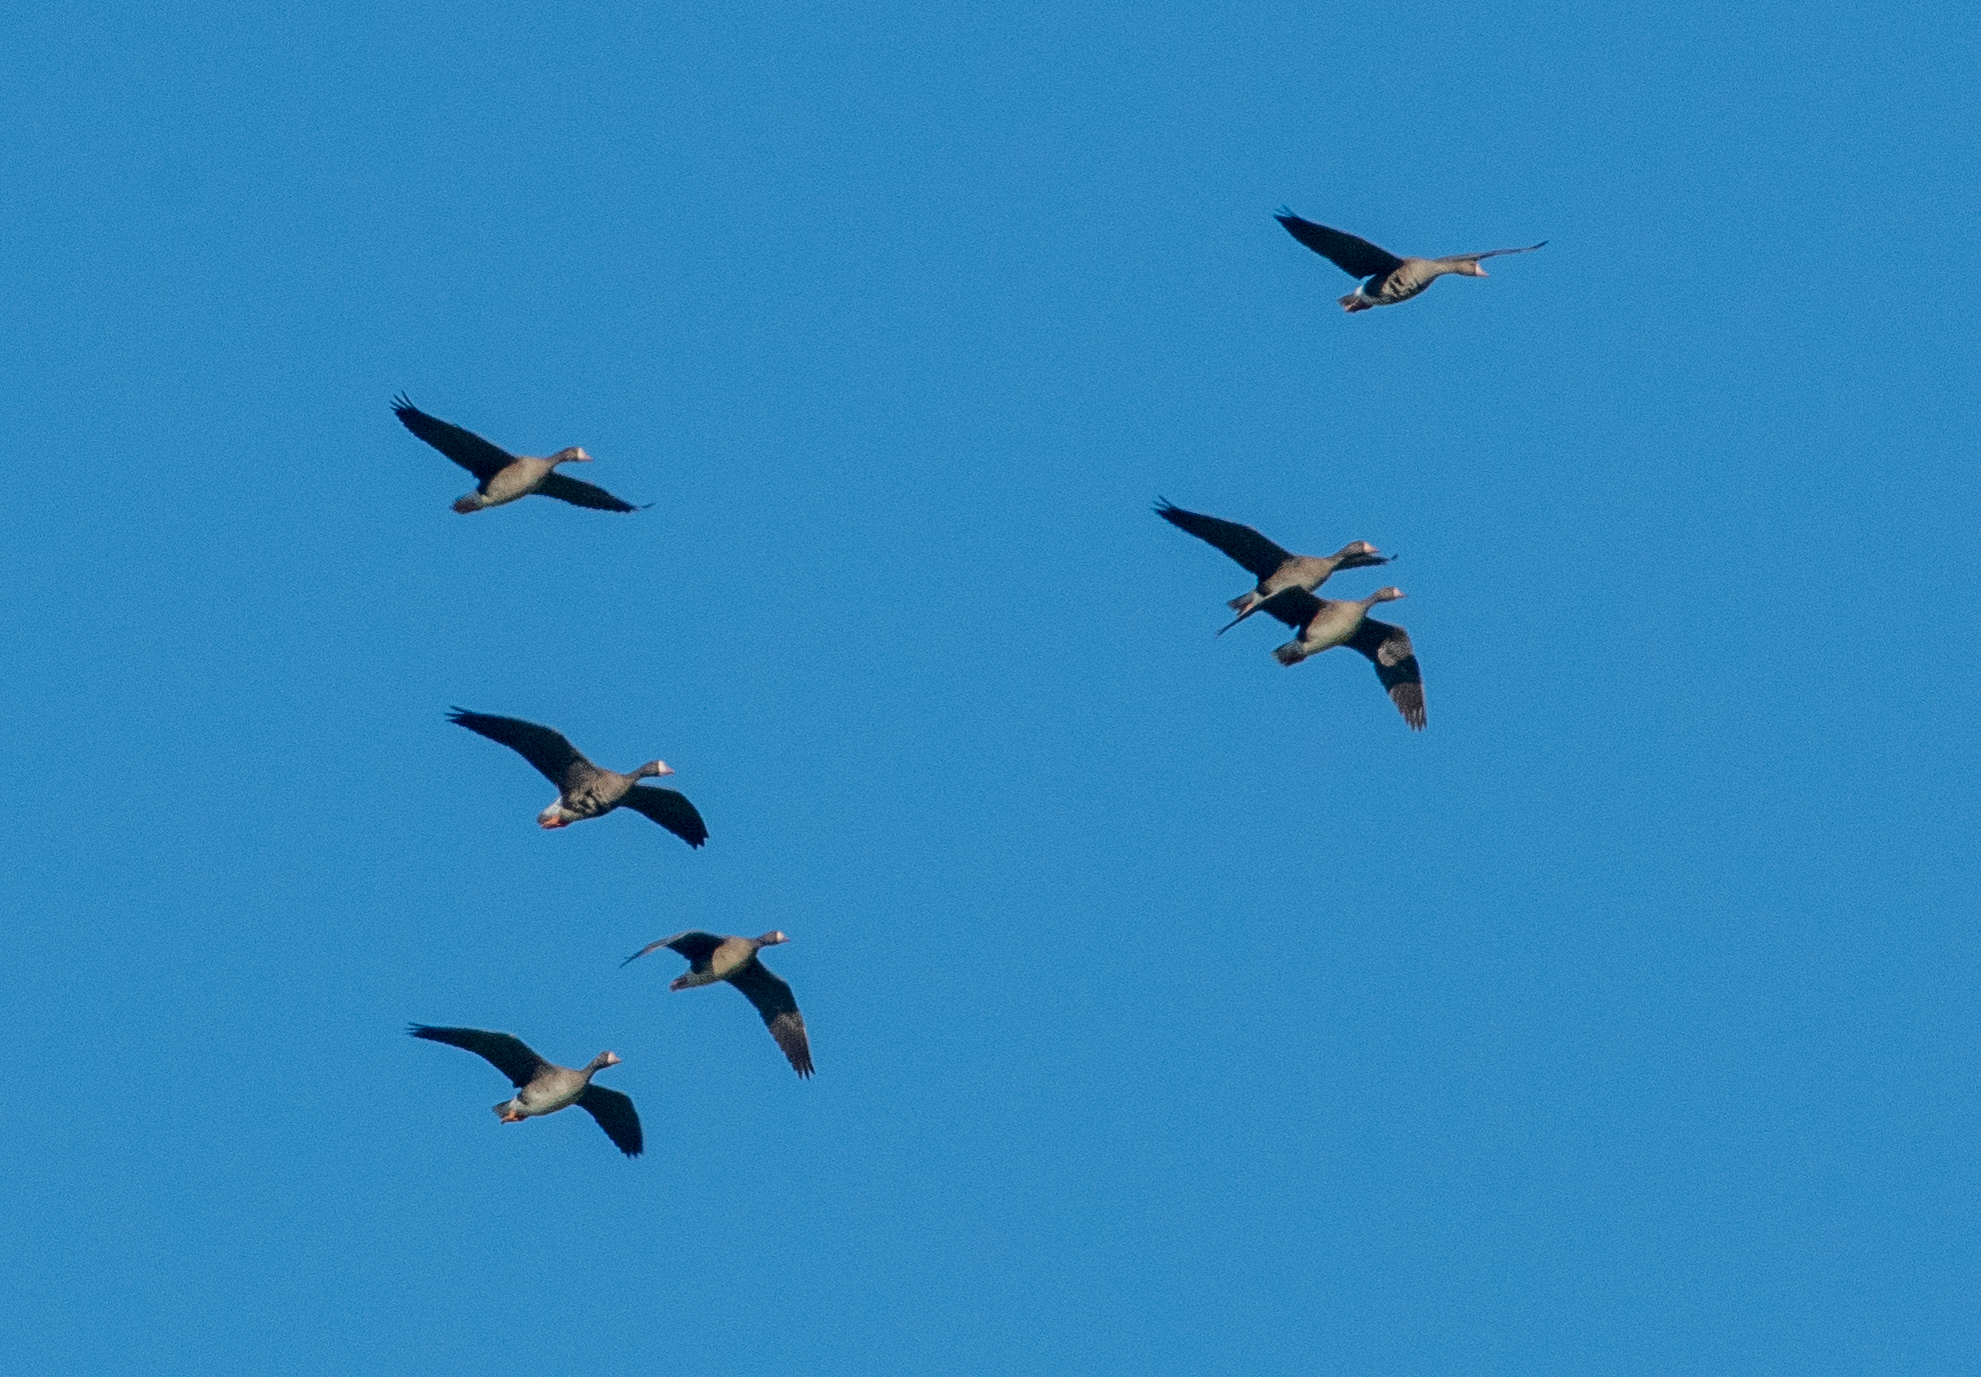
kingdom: Animalia
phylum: Chordata
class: Aves
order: Anseriformes
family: Anatidae
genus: Anser
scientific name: Anser albifrons
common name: Greater white-fronted goose
